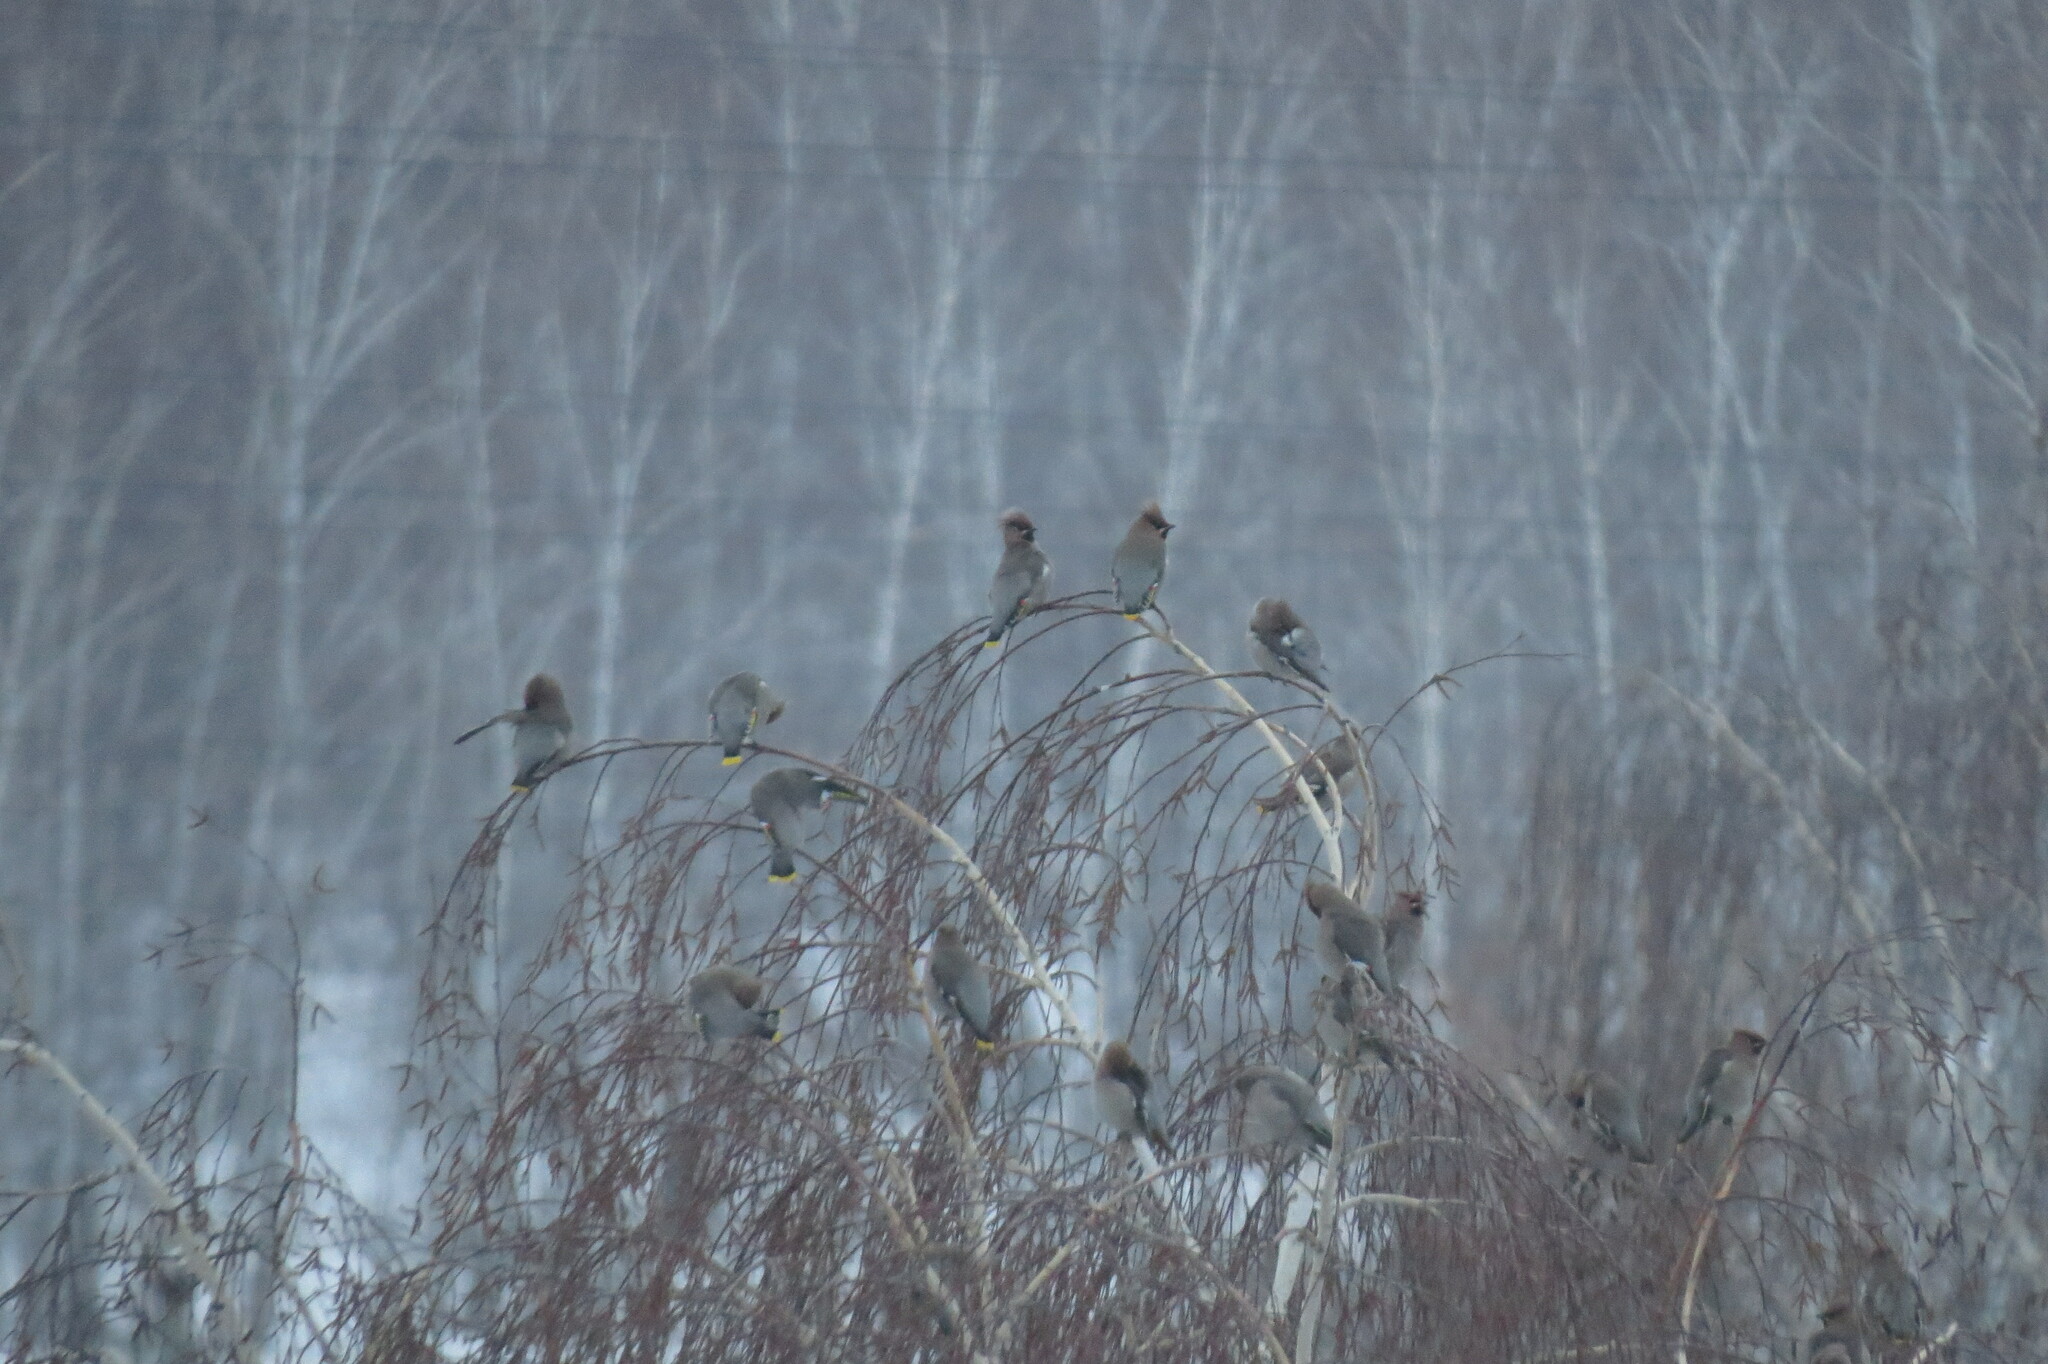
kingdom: Animalia
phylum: Chordata
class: Aves
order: Passeriformes
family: Bombycillidae
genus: Bombycilla
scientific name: Bombycilla garrulus
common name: Bohemian waxwing
